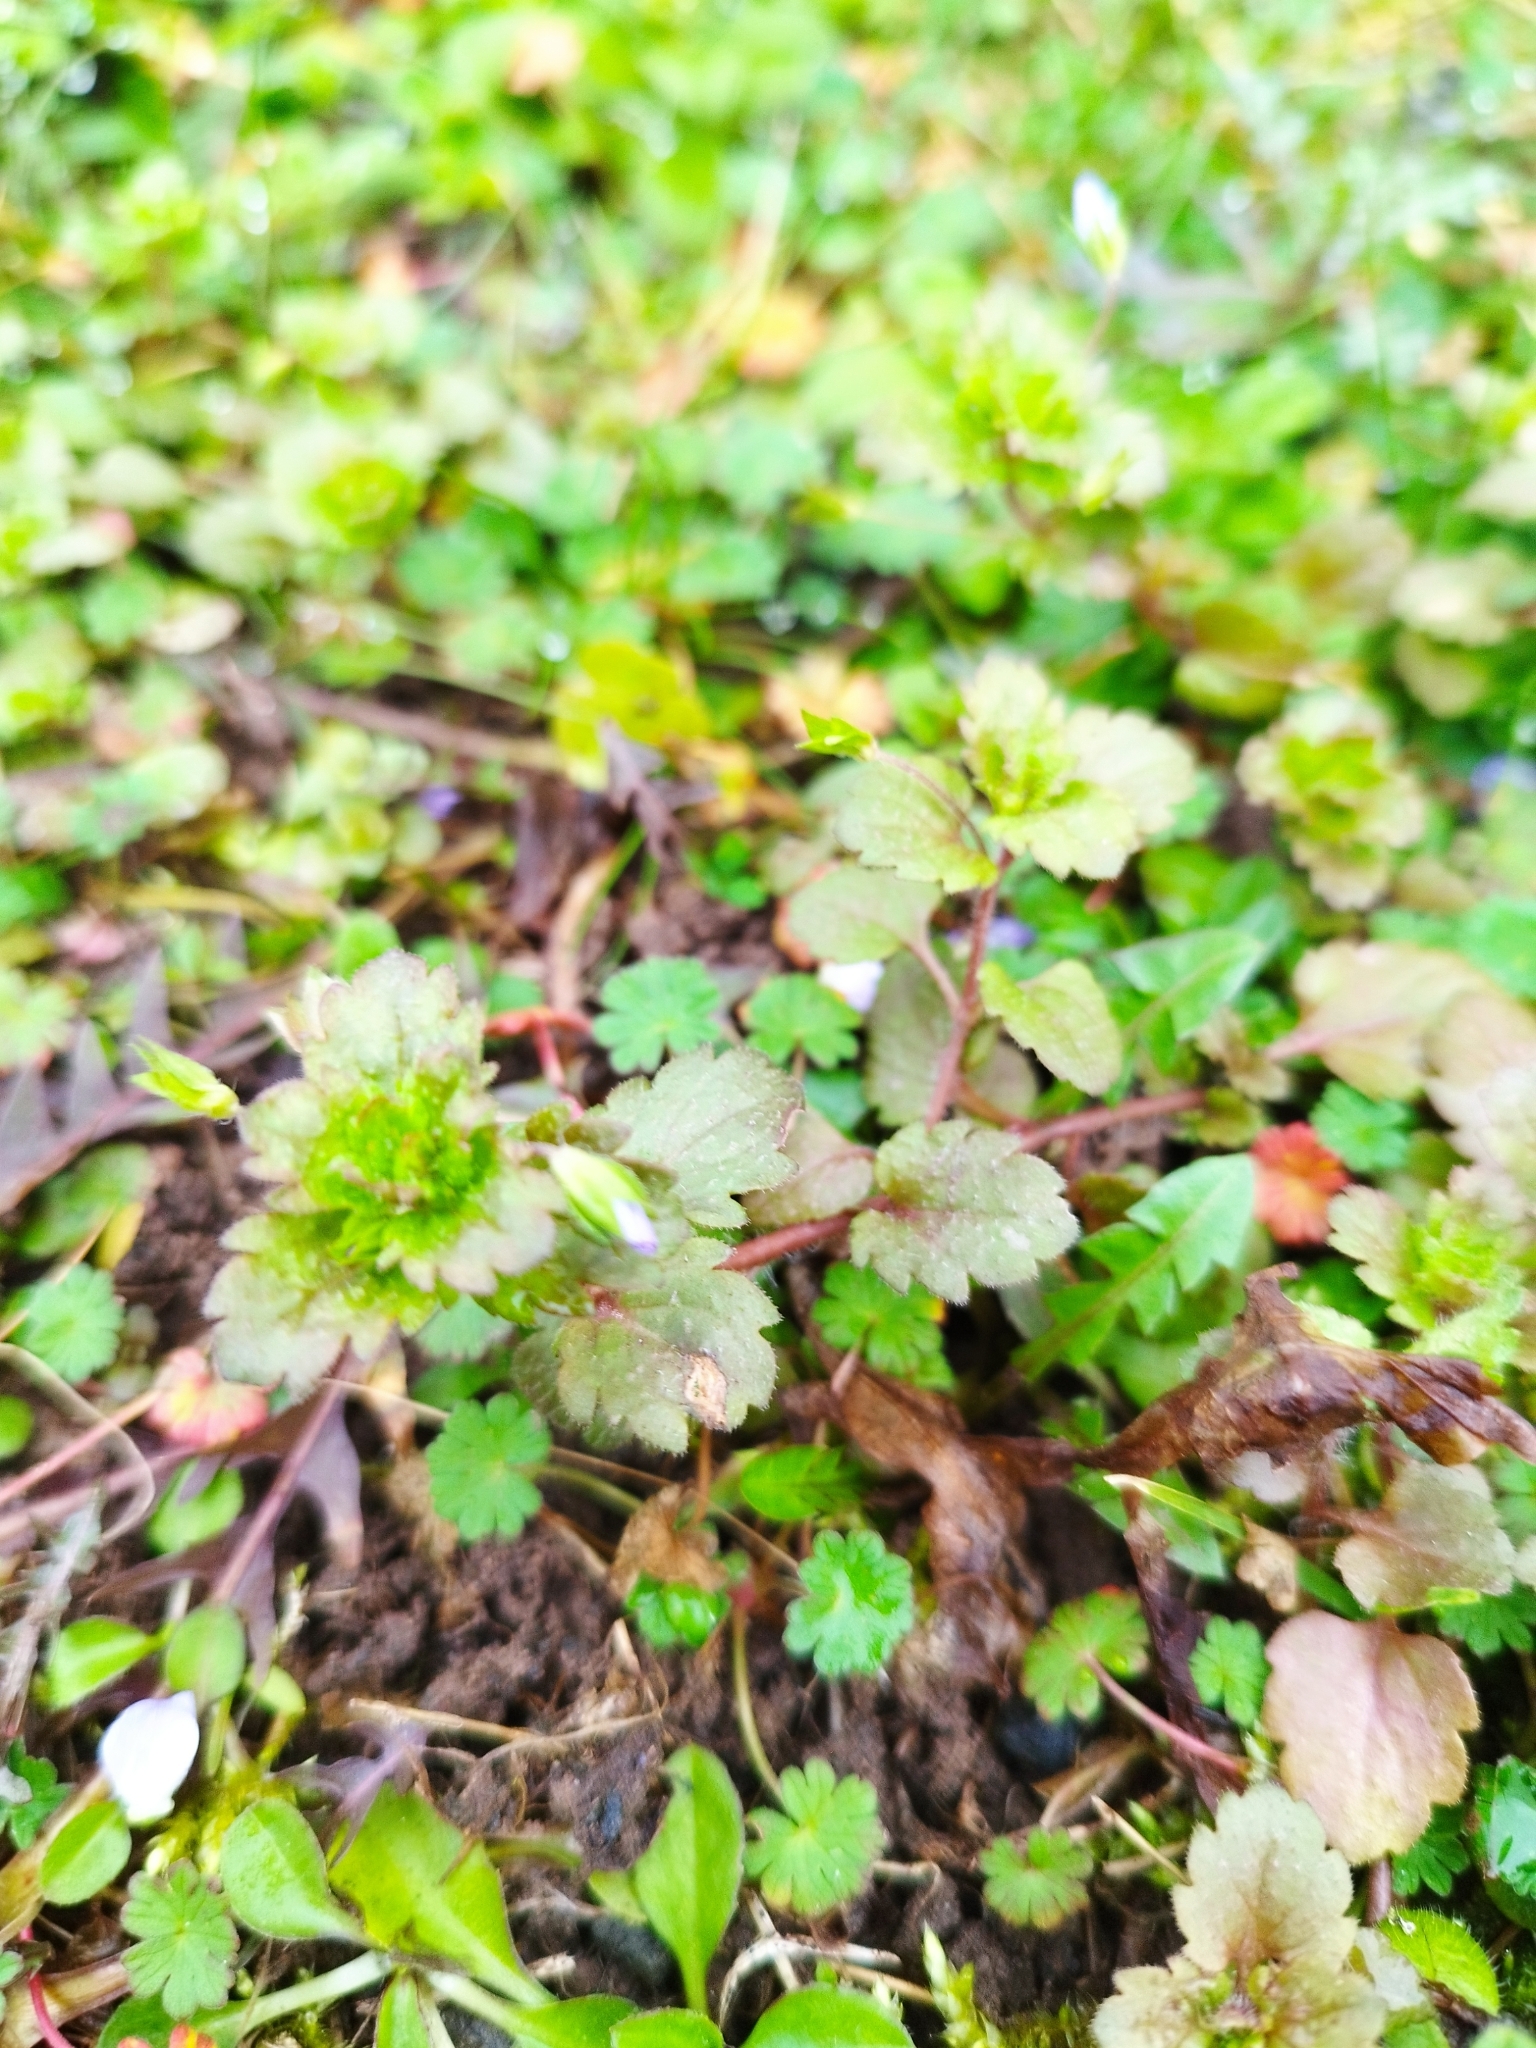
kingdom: Plantae
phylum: Tracheophyta
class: Magnoliopsida
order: Lamiales
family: Plantaginaceae
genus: Veronica
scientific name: Veronica persica
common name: Common field-speedwell
